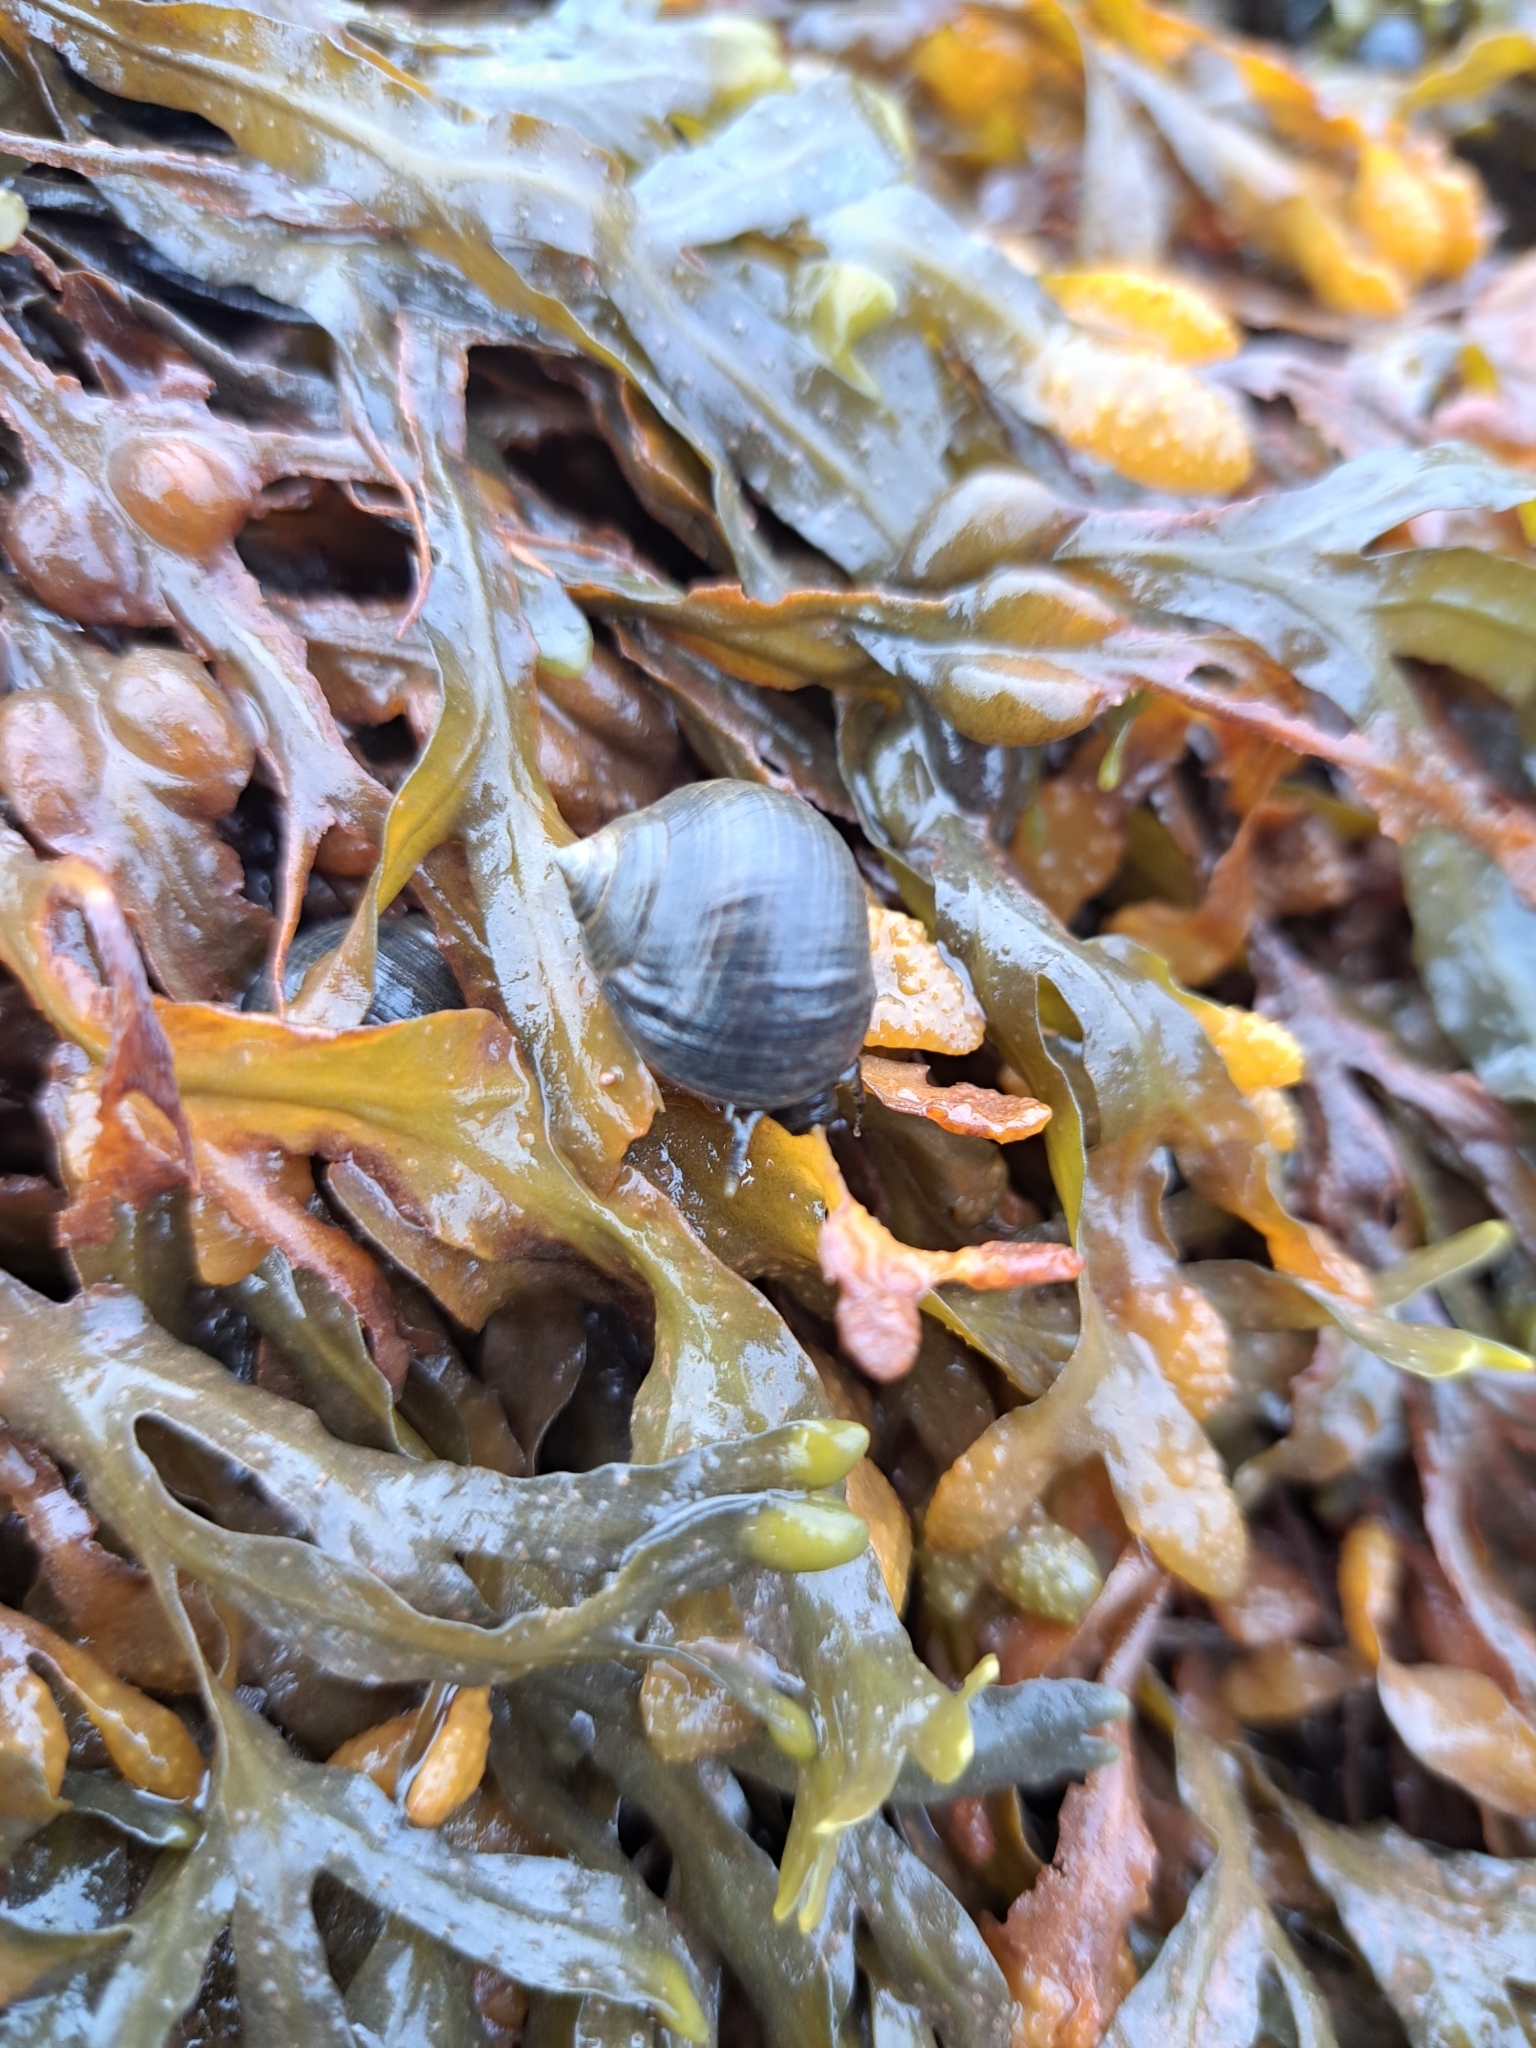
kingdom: Animalia
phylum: Mollusca
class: Gastropoda
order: Littorinimorpha
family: Littorinidae
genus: Littorina
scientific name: Littorina littorea
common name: Common periwinkle
